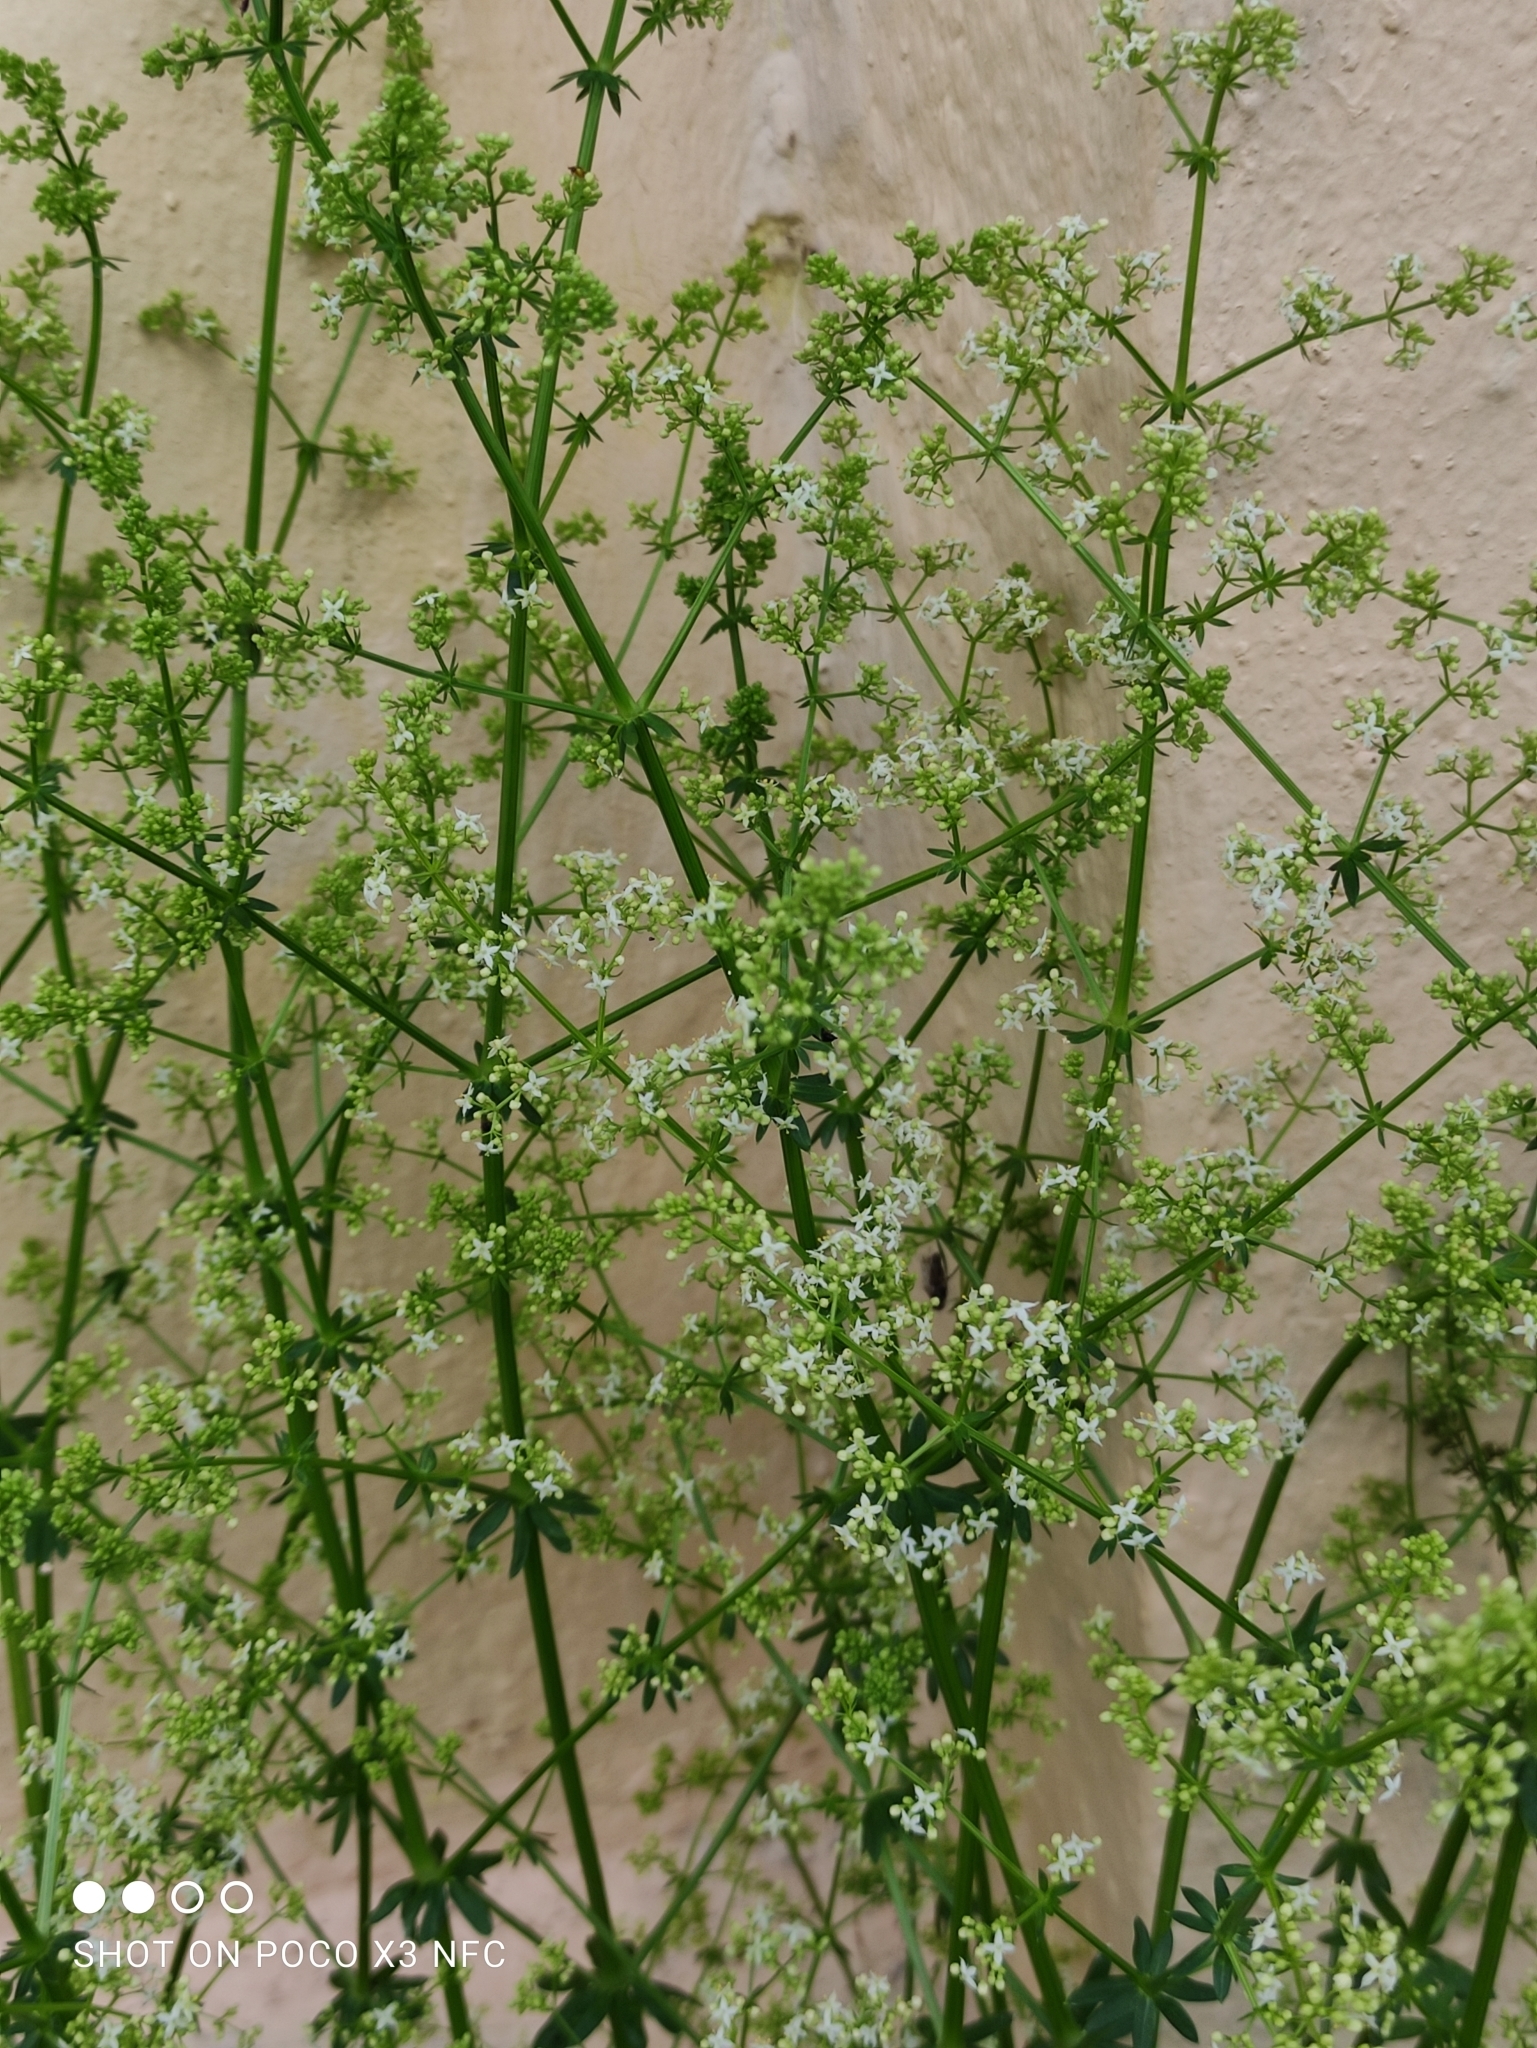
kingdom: Plantae
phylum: Tracheophyta
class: Magnoliopsida
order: Gentianales
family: Rubiaceae
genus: Galium
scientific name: Galium mollugo
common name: Hedge bedstraw
